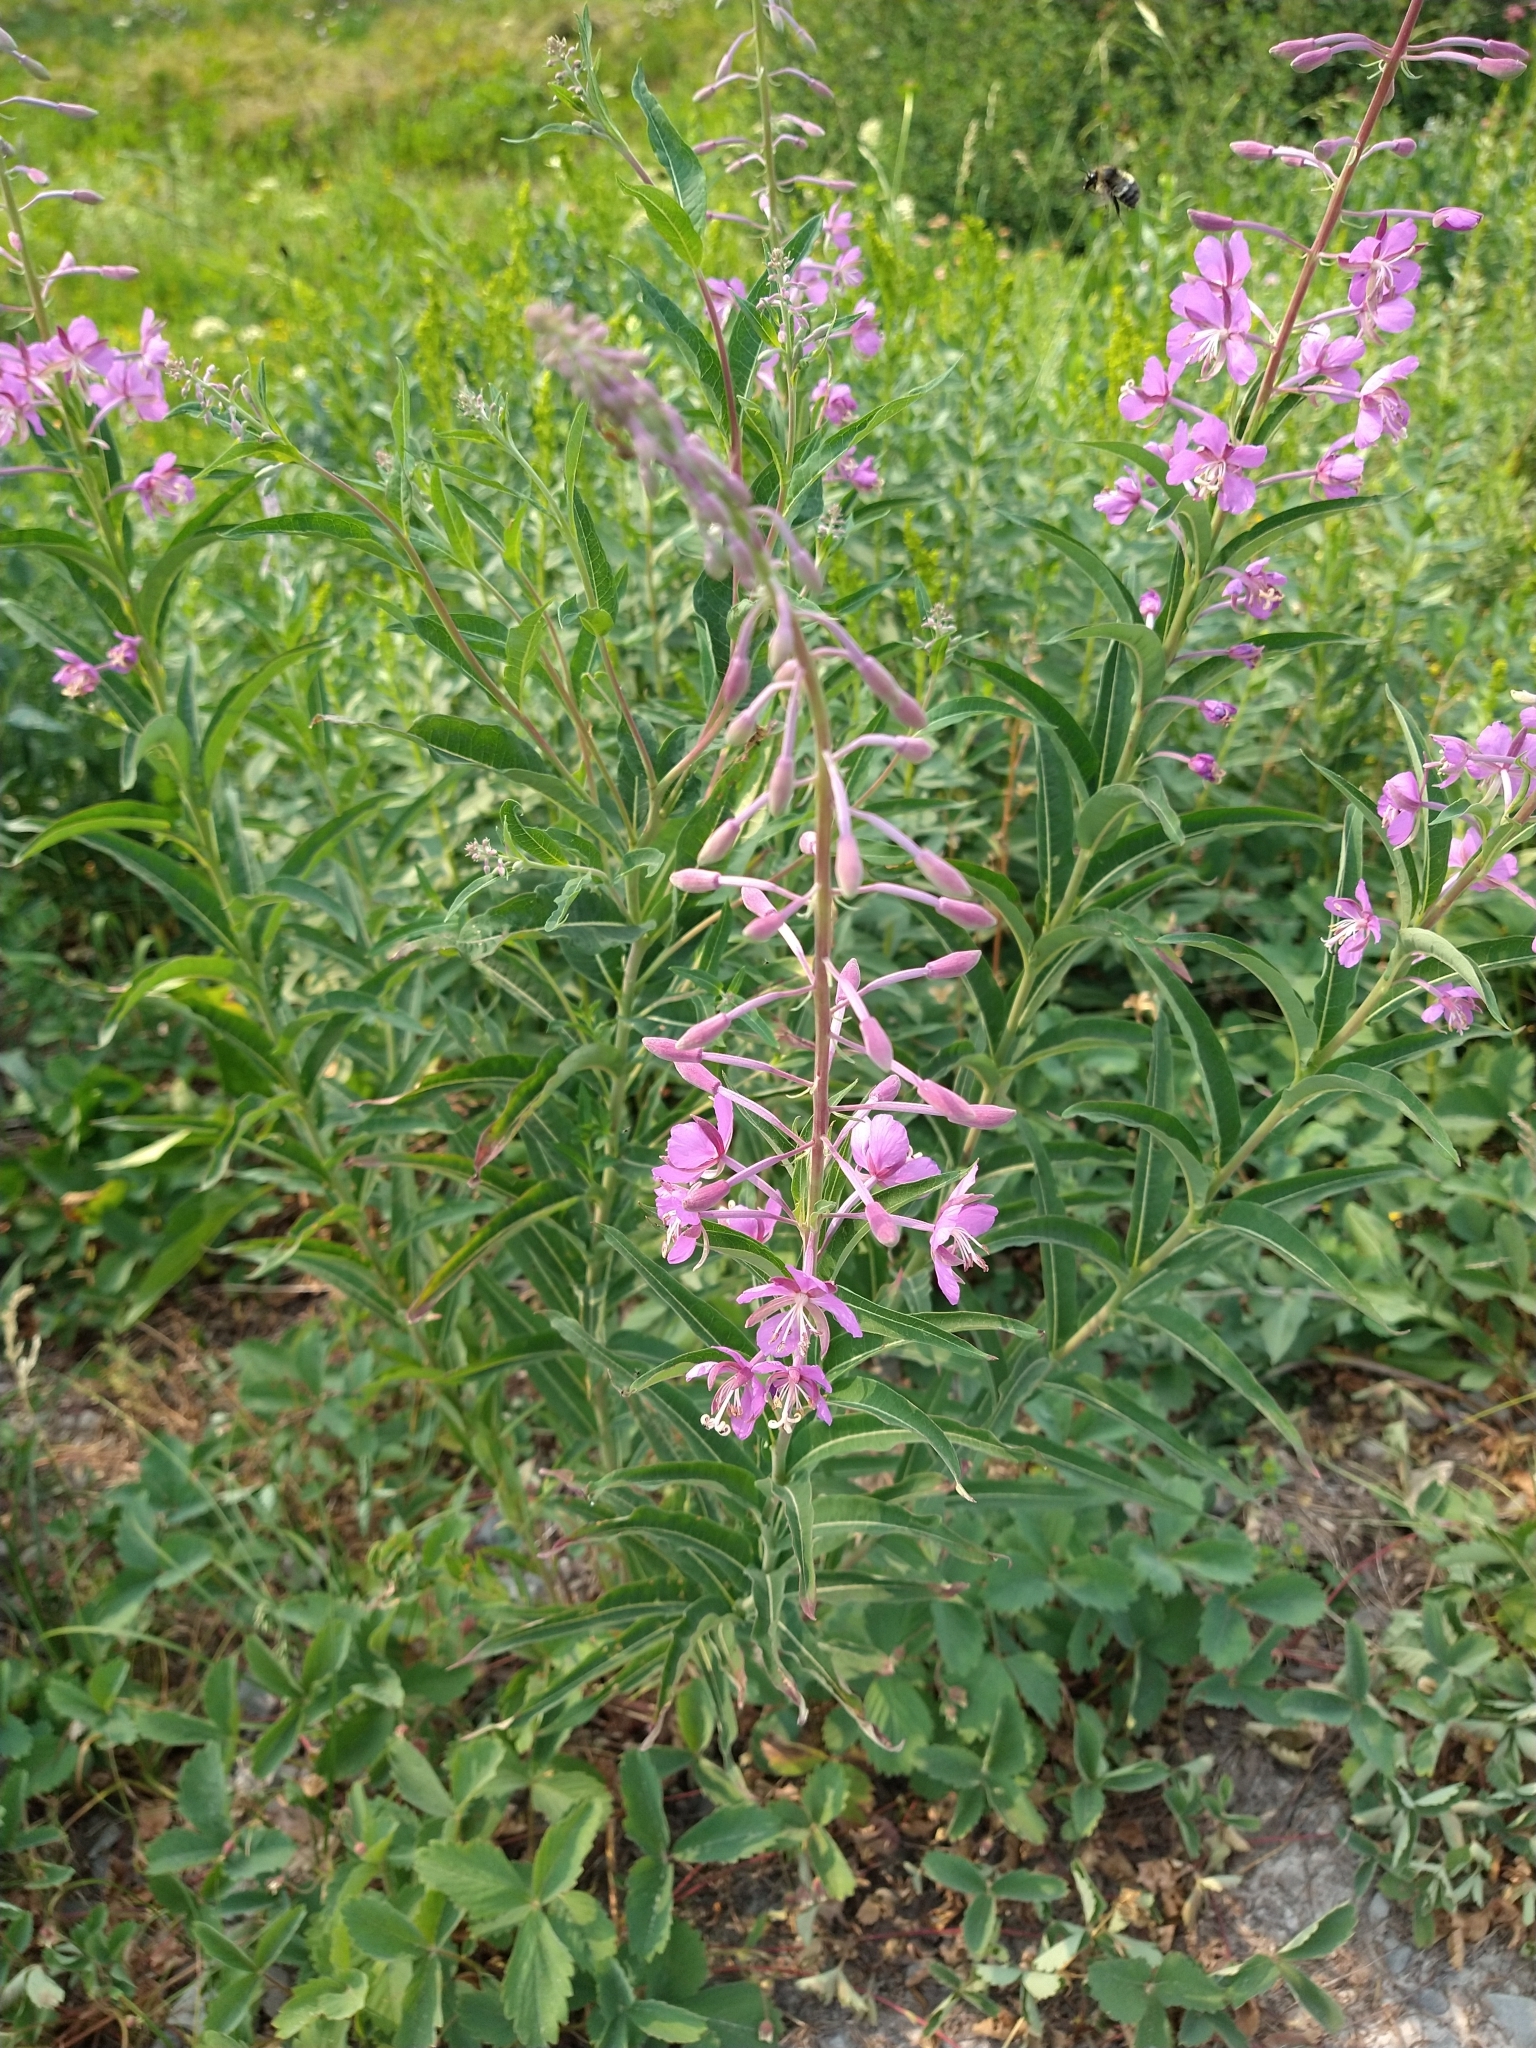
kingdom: Plantae
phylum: Tracheophyta
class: Magnoliopsida
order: Myrtales
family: Onagraceae
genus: Chamaenerion
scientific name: Chamaenerion angustifolium
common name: Fireweed
